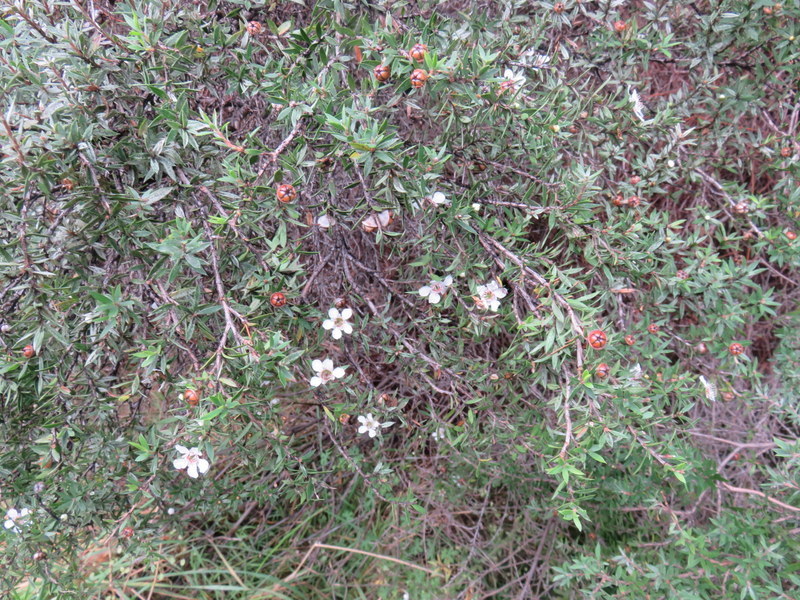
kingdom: Plantae
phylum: Tracheophyta
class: Magnoliopsida
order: Myrtales
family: Myrtaceae
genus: Leptospermum
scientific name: Leptospermum scoparium
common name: Broom tea-tree
